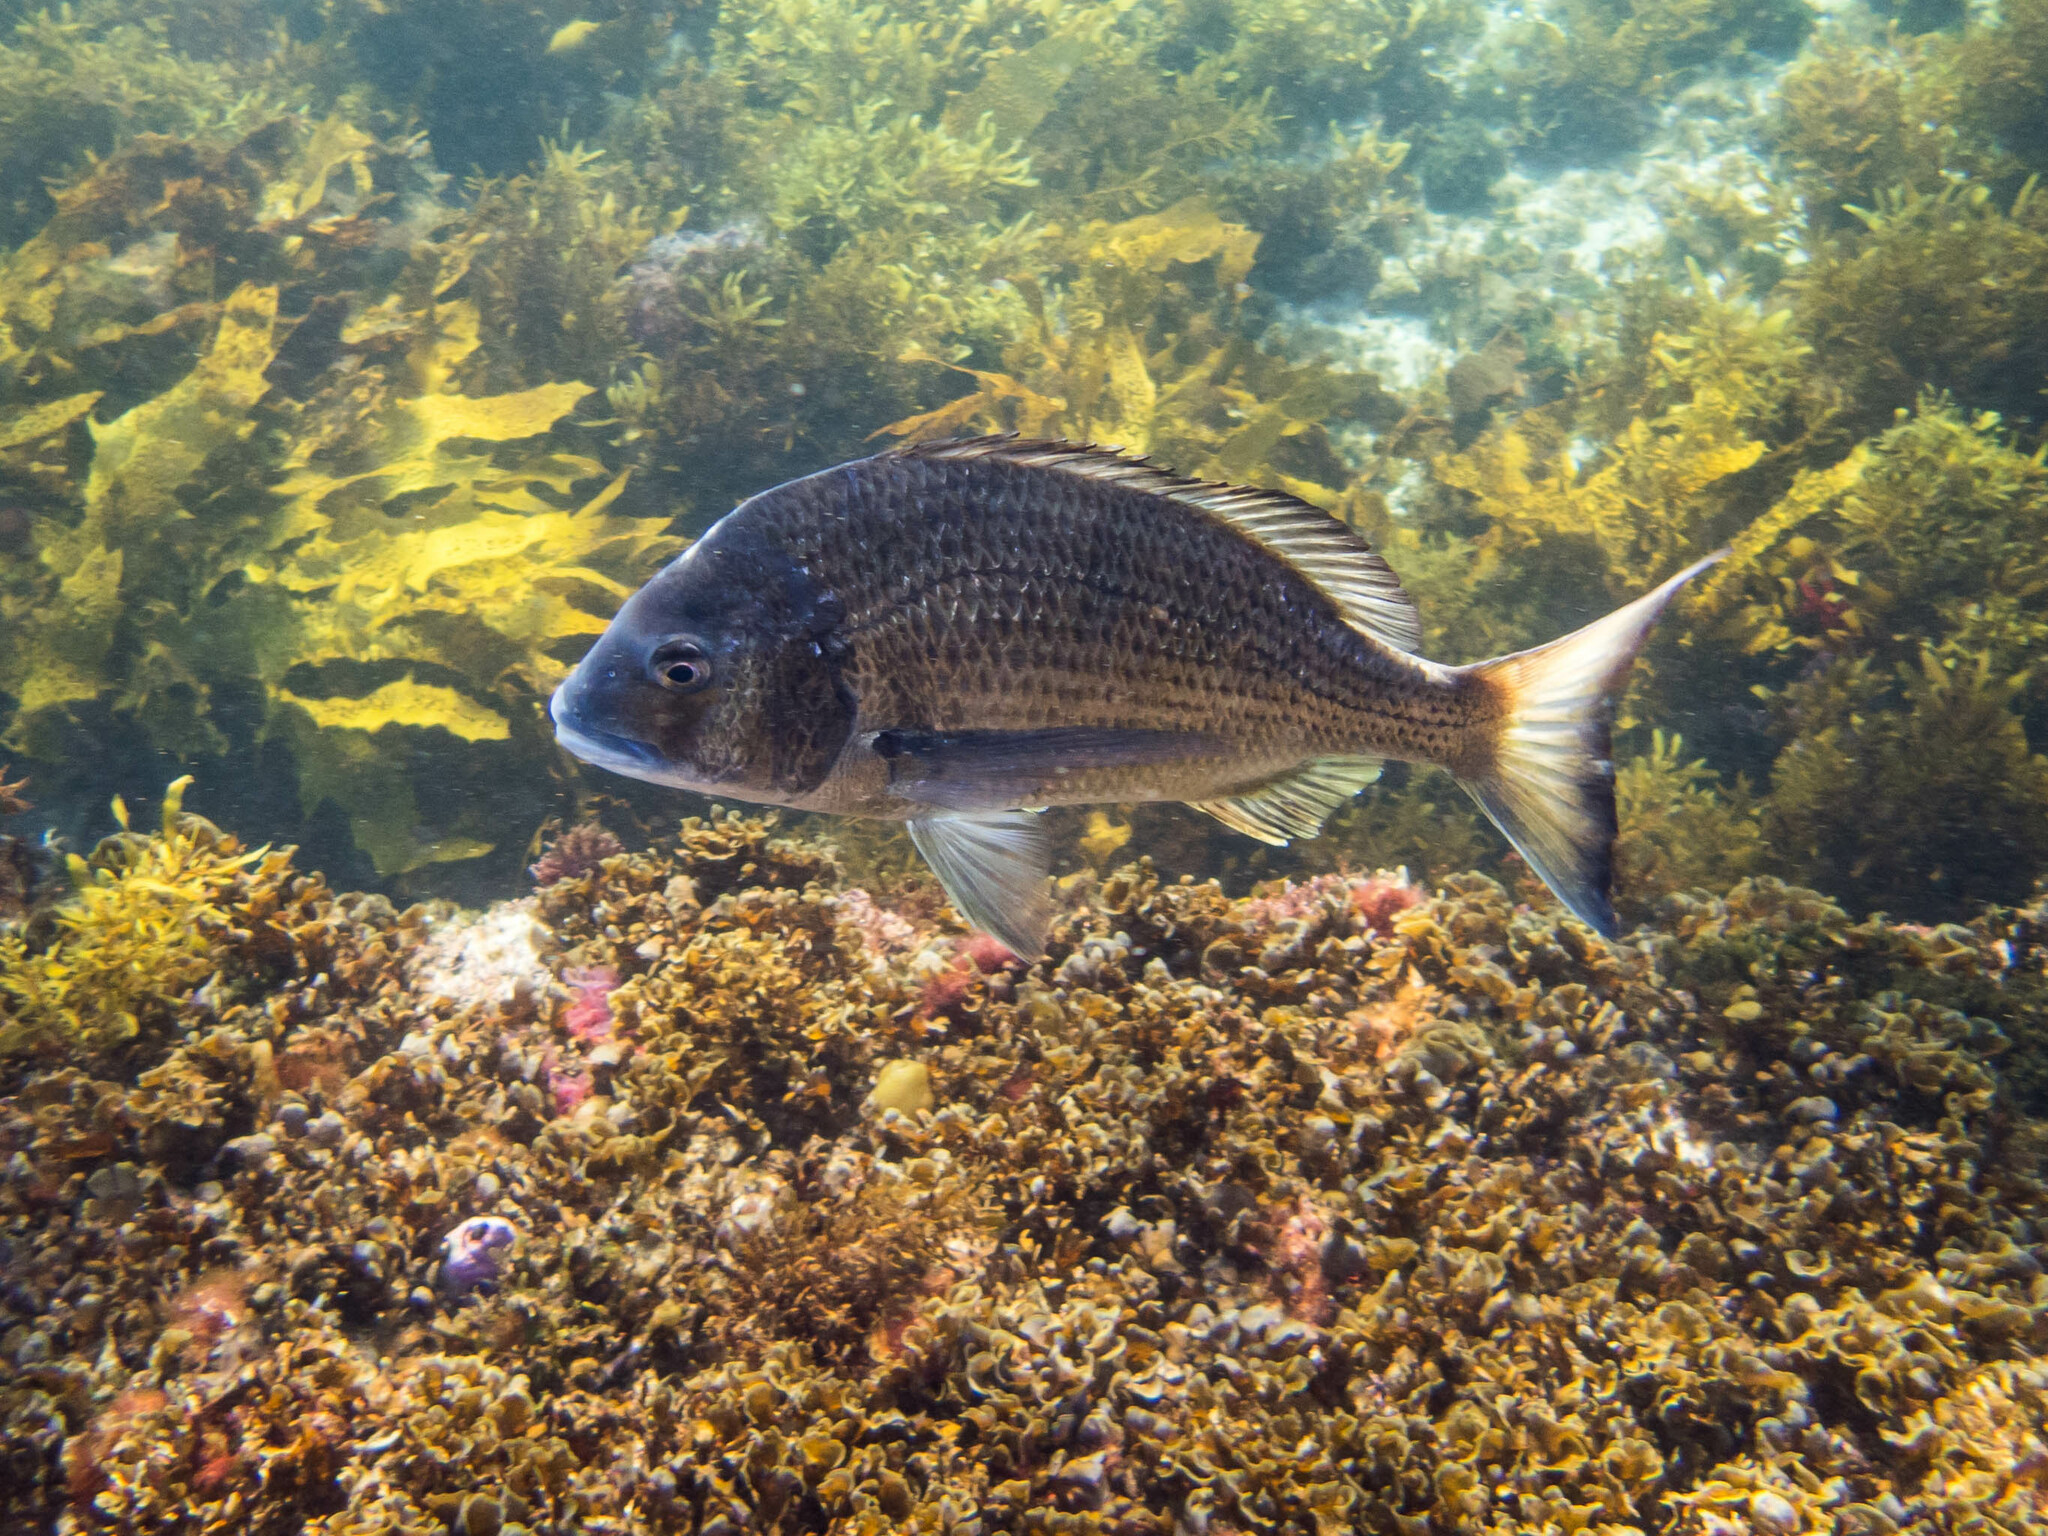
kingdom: Animalia
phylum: Chordata
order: Perciformes
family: Sparidae
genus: Acanthopagrus
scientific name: Acanthopagrus australis
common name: Surf bream
